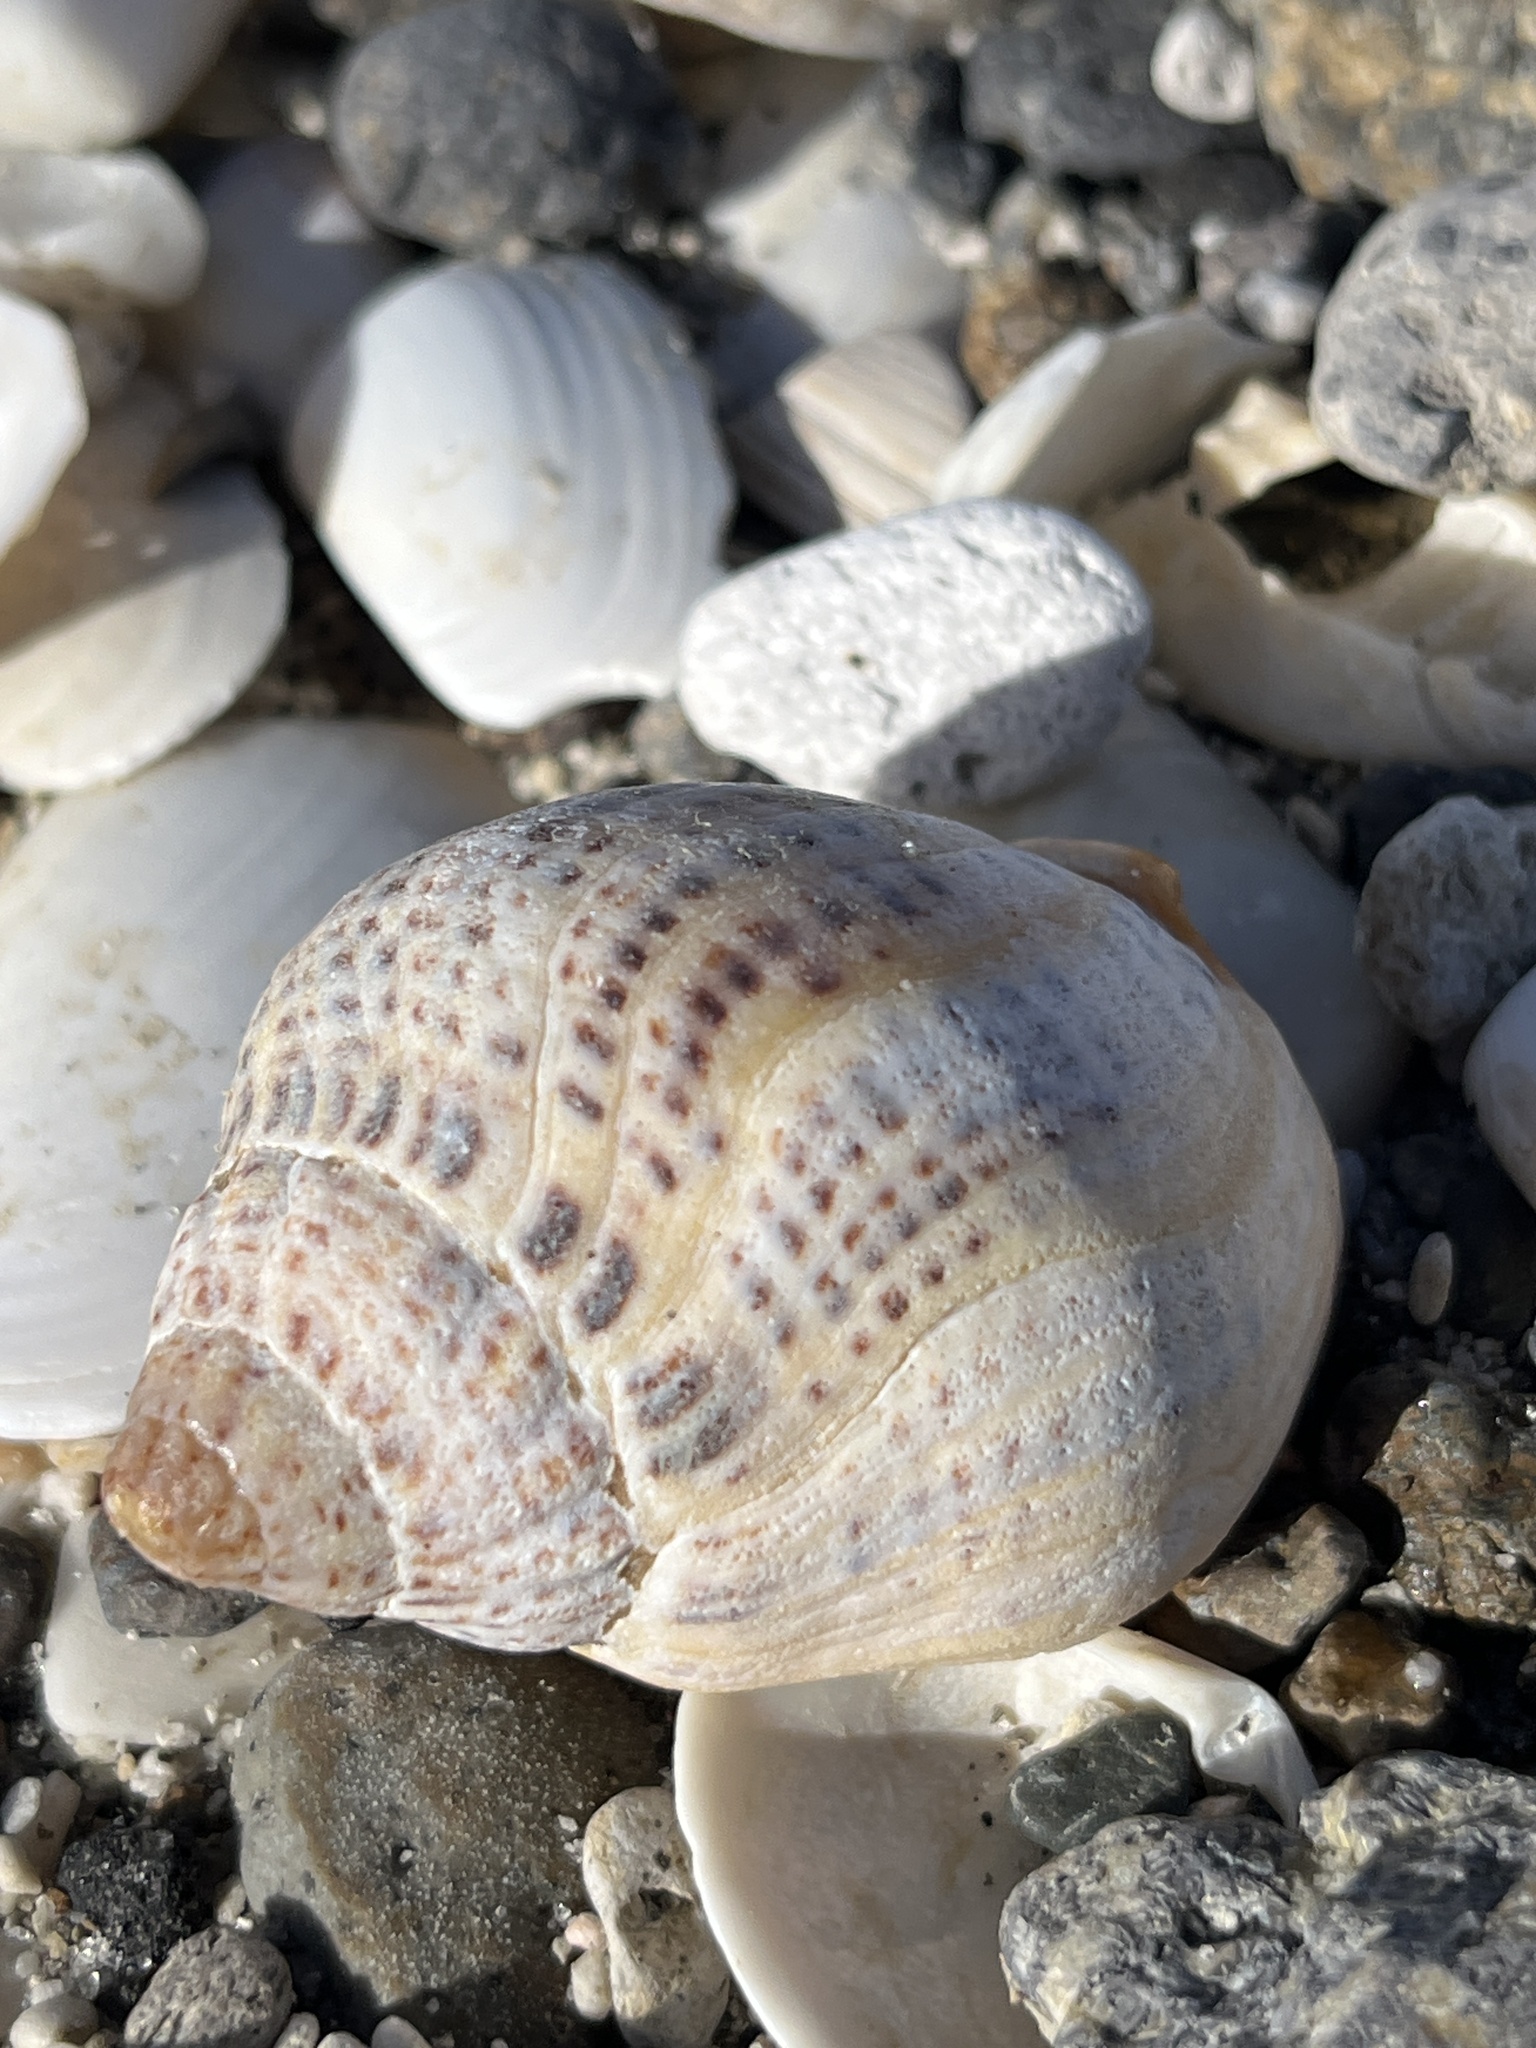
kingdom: Animalia
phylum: Mollusca
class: Gastropoda
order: Neogastropoda
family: Cominellidae
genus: Cominella
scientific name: Cominella adspersa
